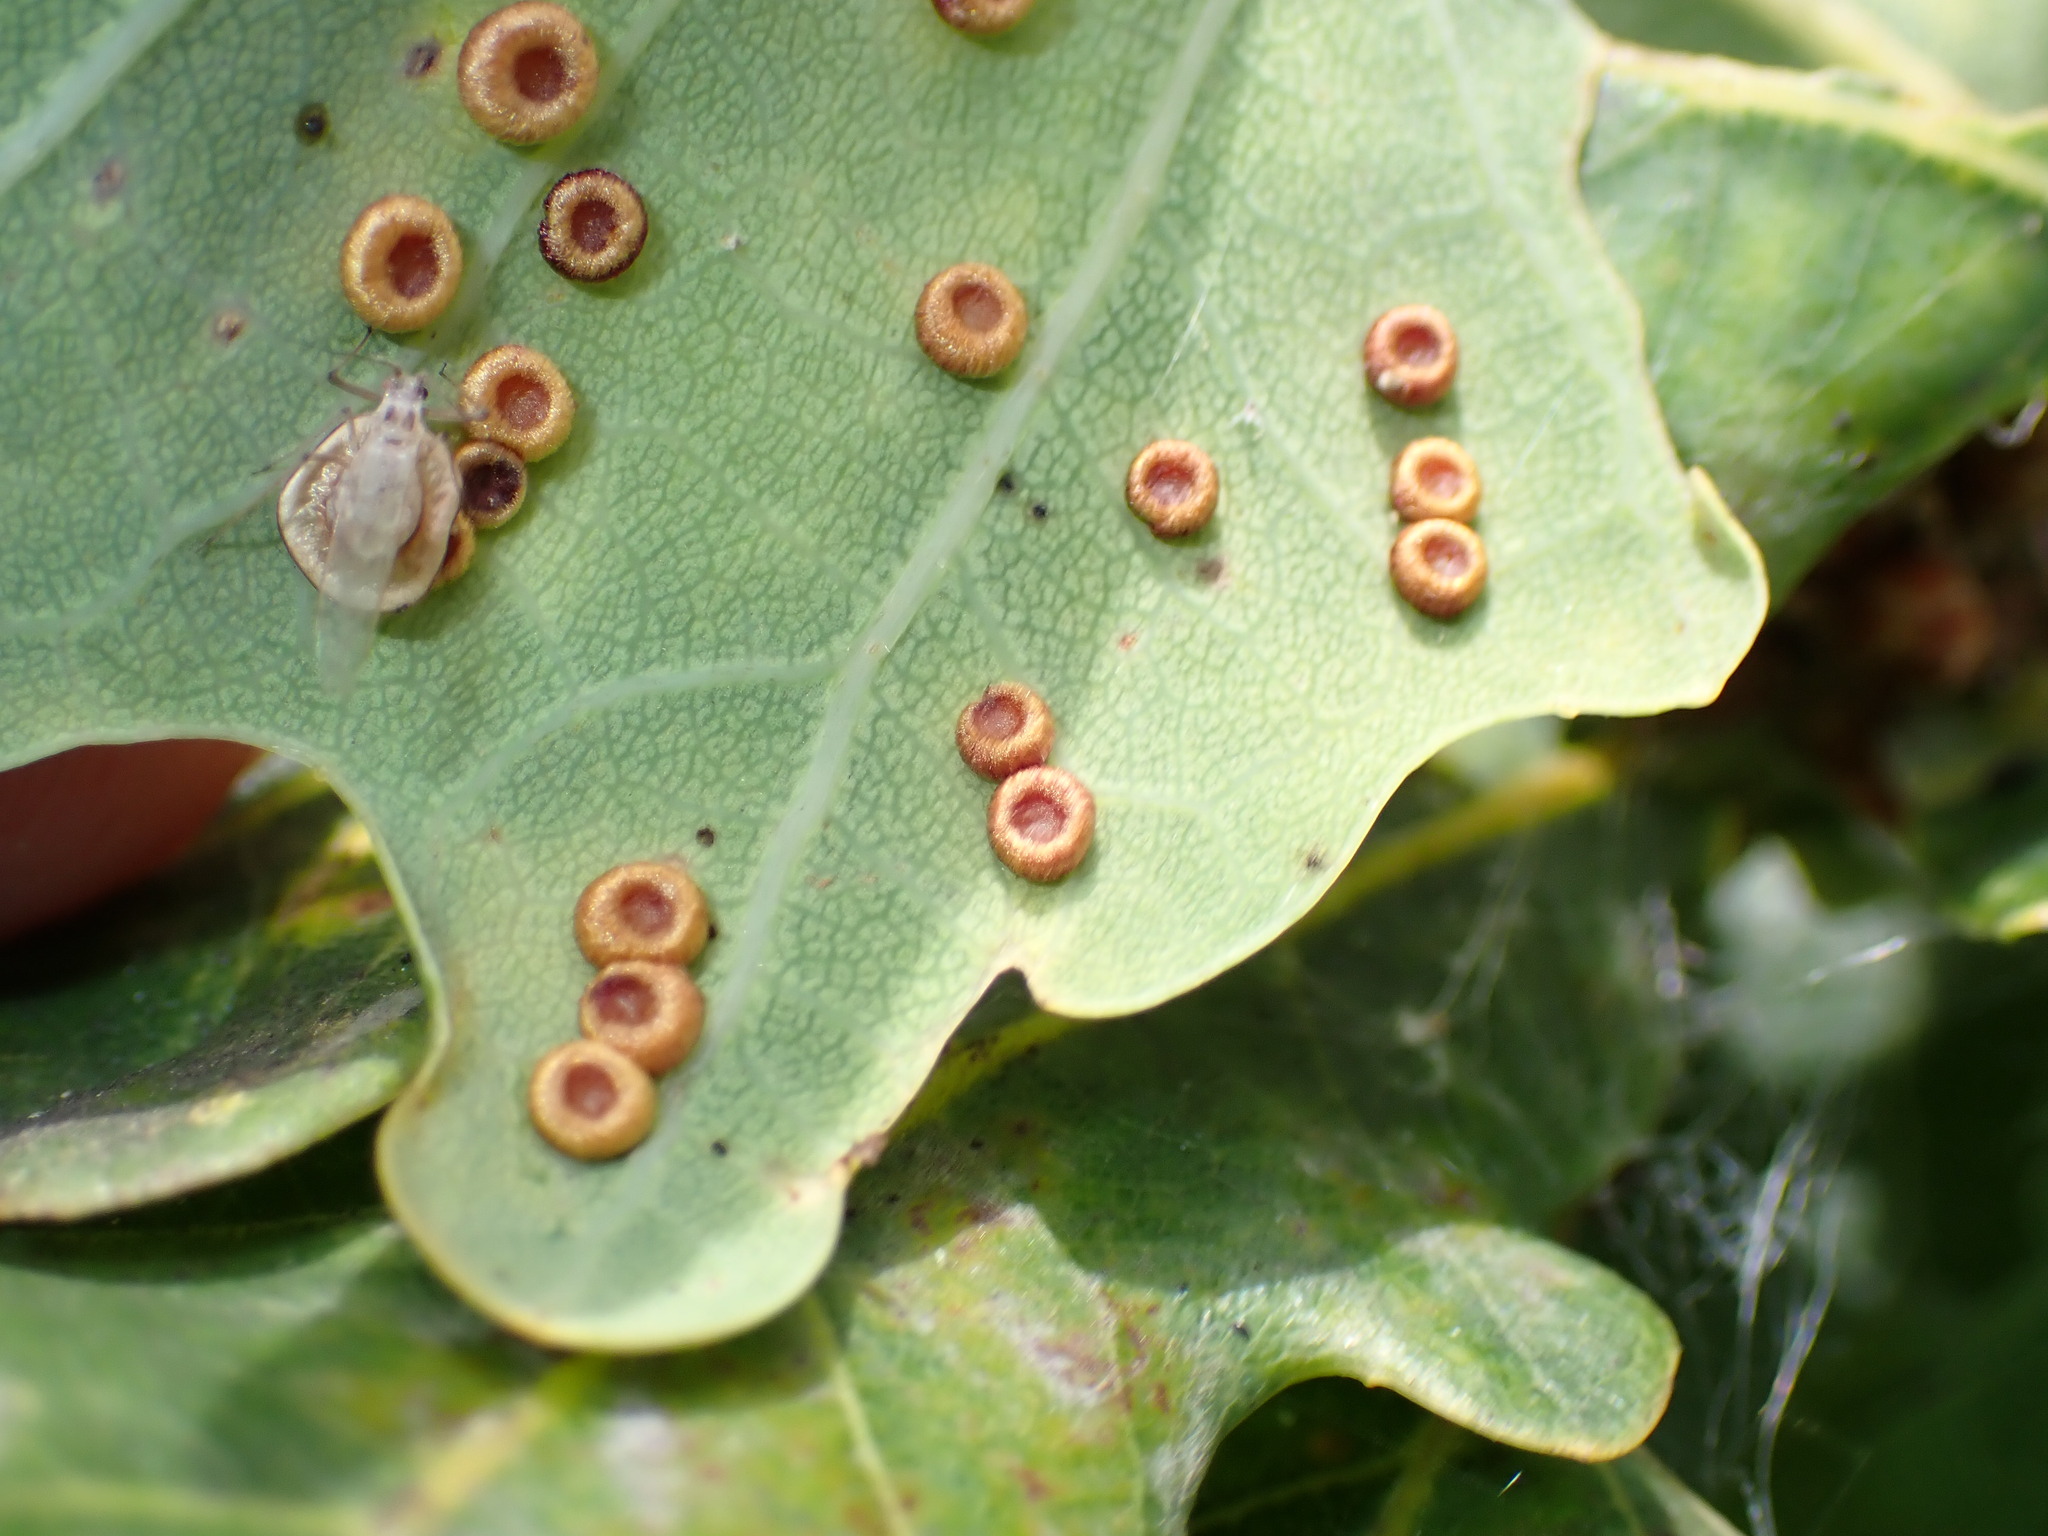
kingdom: Animalia
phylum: Arthropoda
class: Insecta
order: Hymenoptera
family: Cynipidae
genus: Neuroterus
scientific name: Neuroterus numismalis
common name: Silk-button spangle gall
